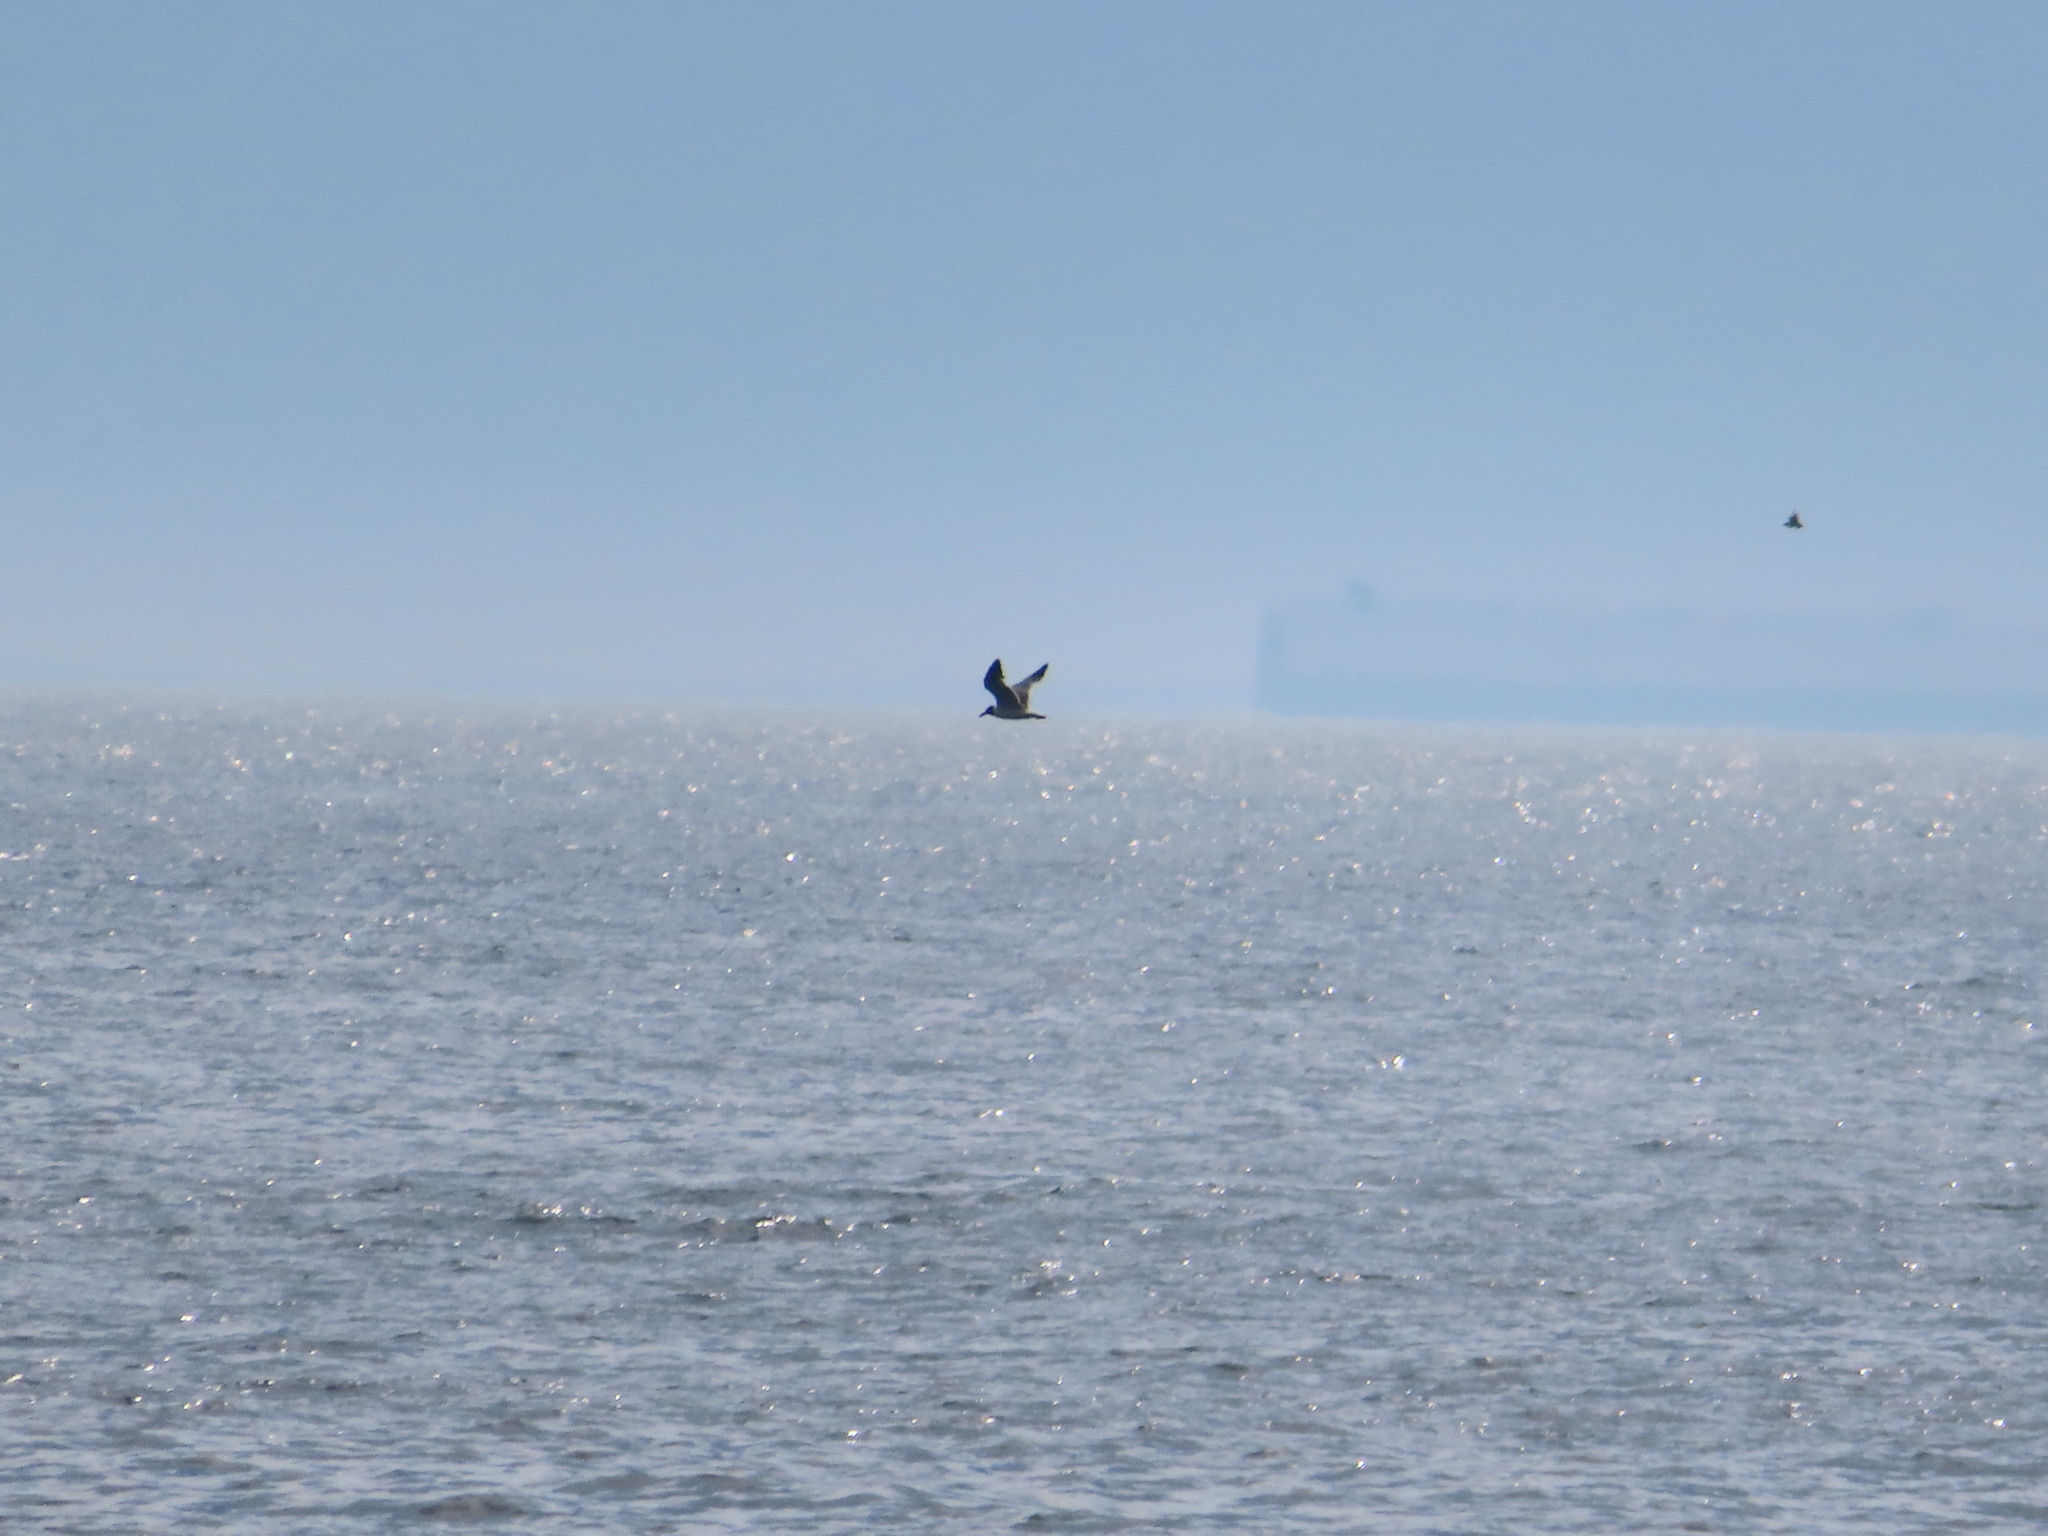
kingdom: Animalia
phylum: Chordata
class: Aves
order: Charadriiformes
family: Laridae
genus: Leucophaeus
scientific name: Leucophaeus atricilla
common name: Laughing gull
